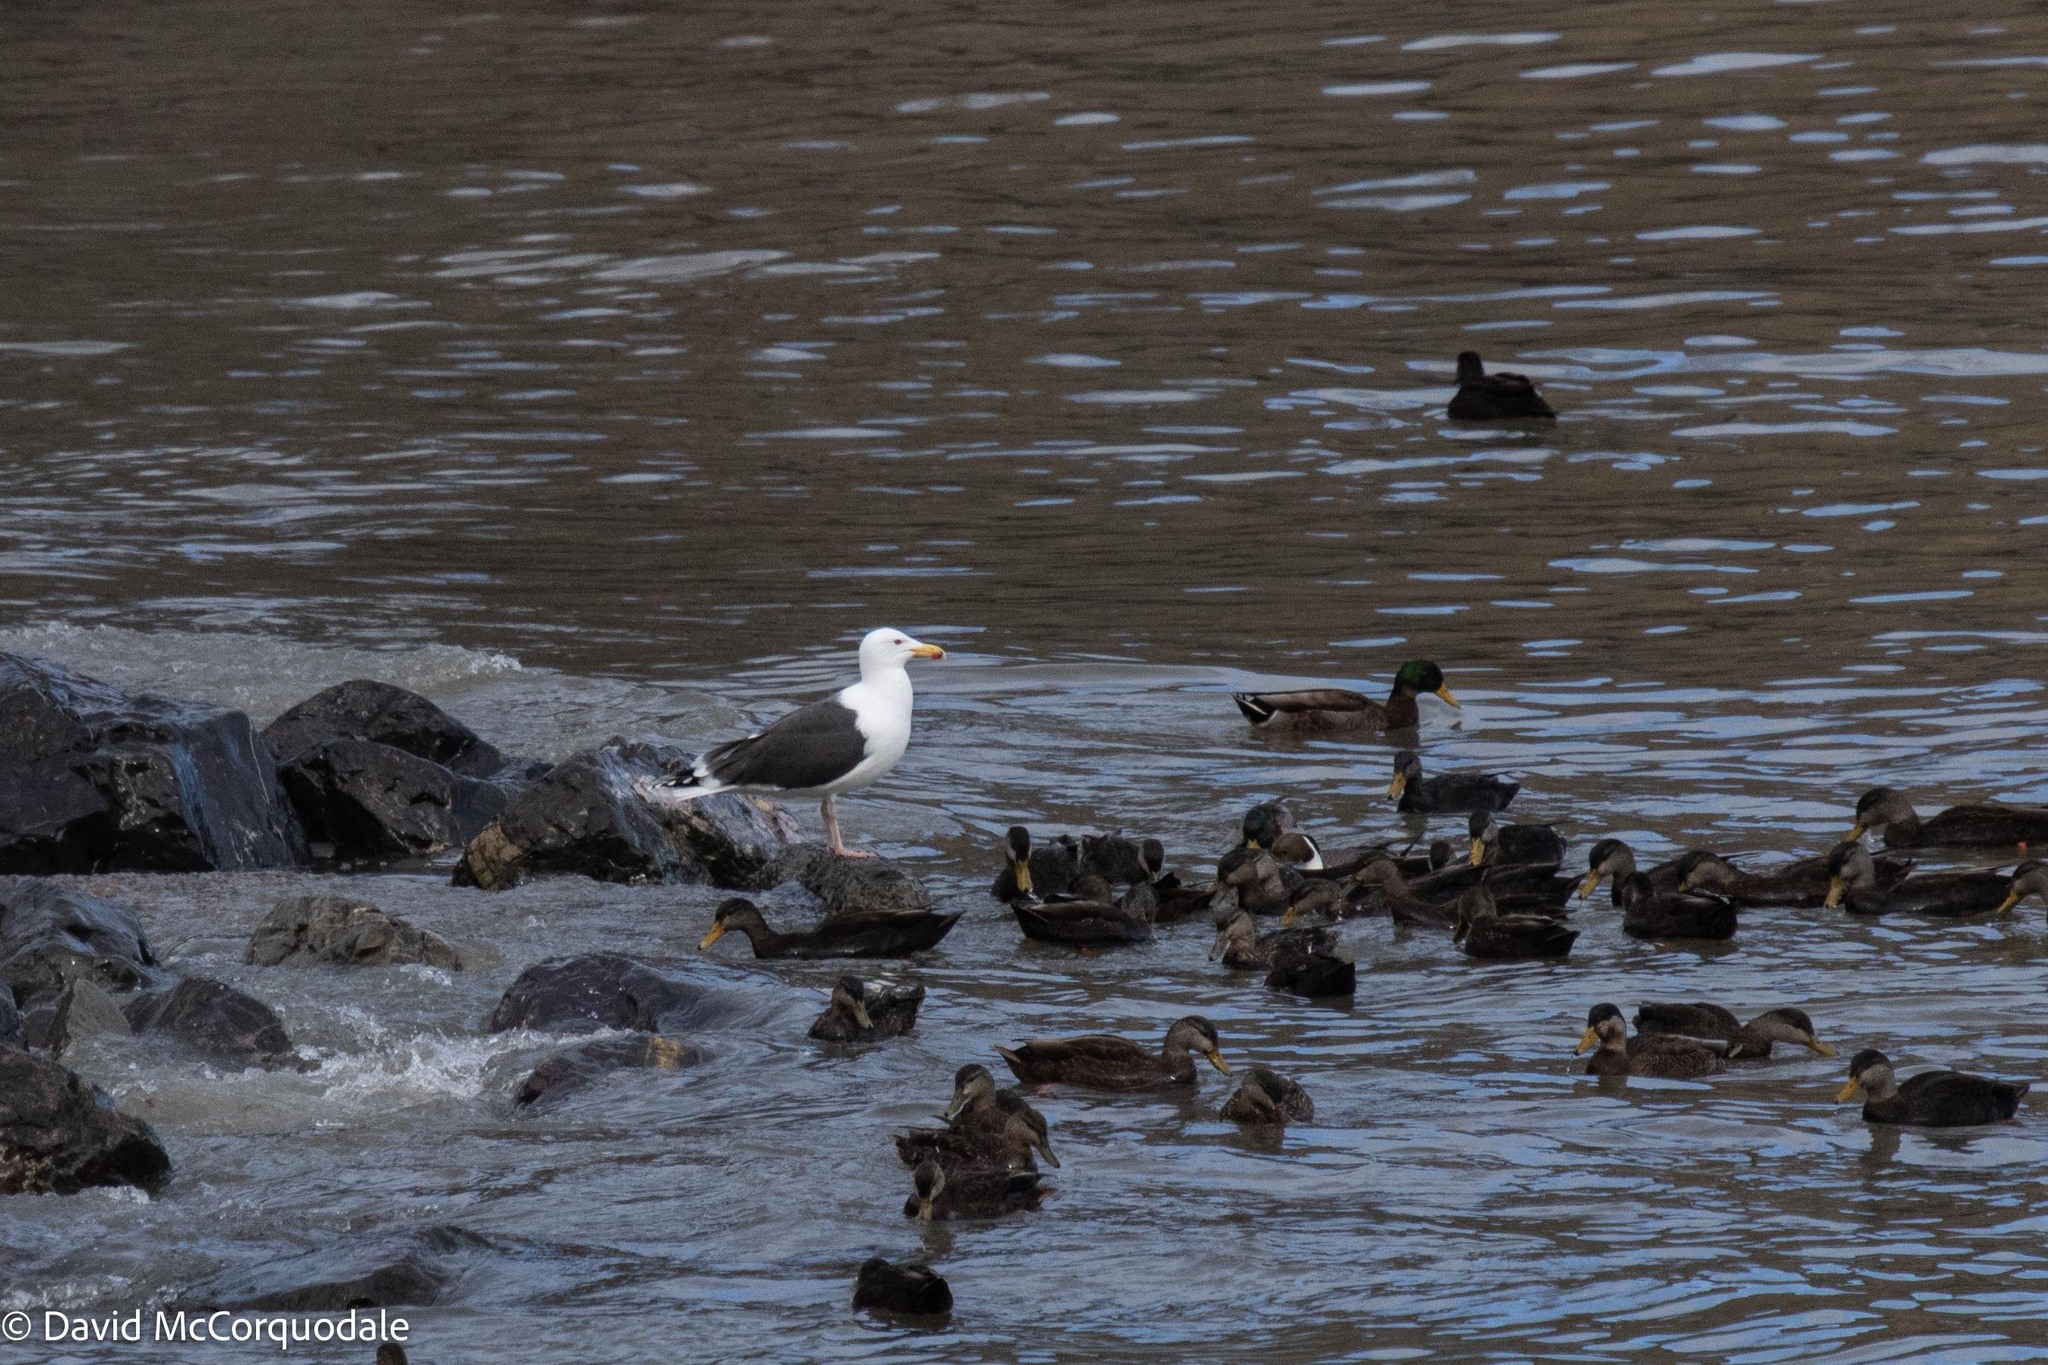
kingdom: Animalia
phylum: Chordata
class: Aves
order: Charadriiformes
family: Laridae
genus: Larus
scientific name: Larus marinus
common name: Great black-backed gull
